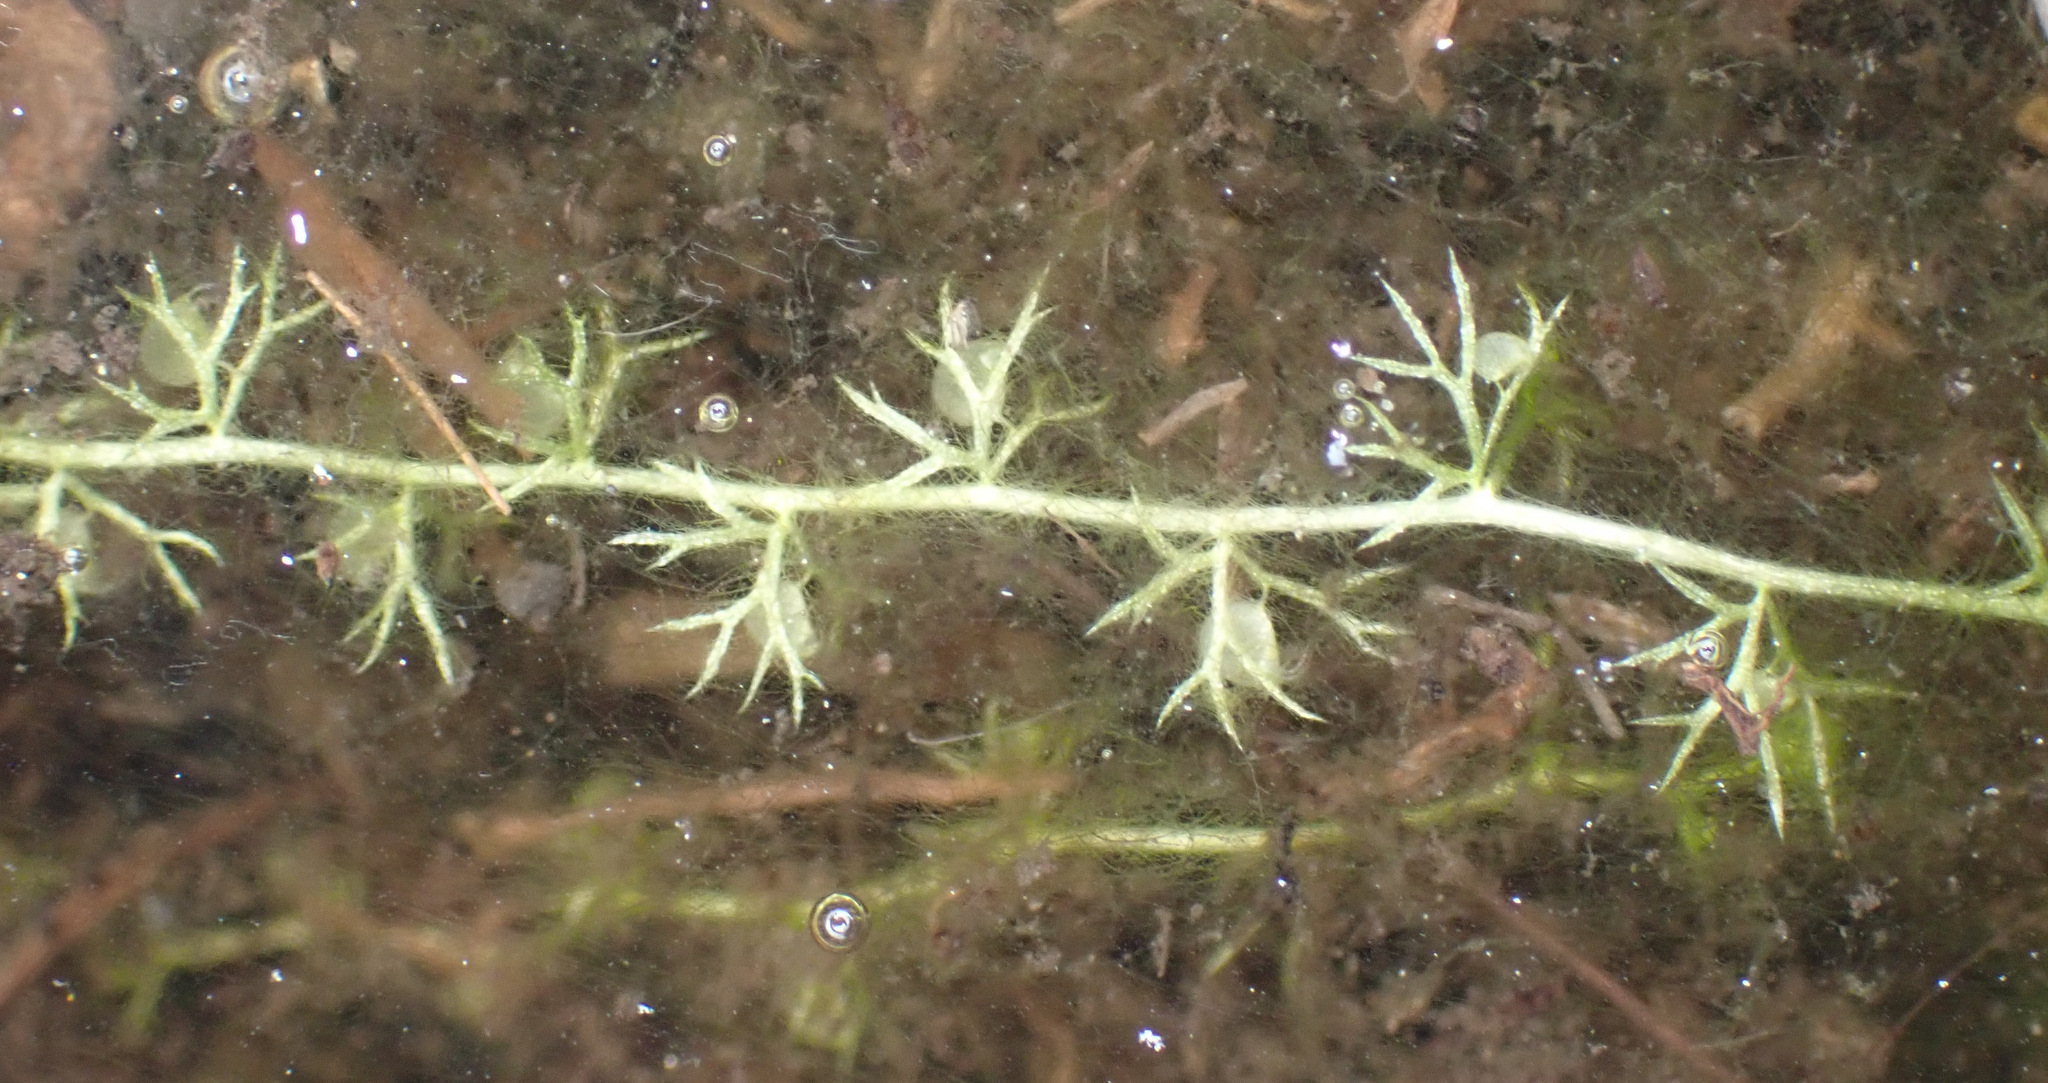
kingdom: Plantae
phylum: Tracheophyta
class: Magnoliopsida
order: Lamiales
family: Lentibulariaceae
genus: Utricularia
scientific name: Utricularia minor
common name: Lesser bladderwort
